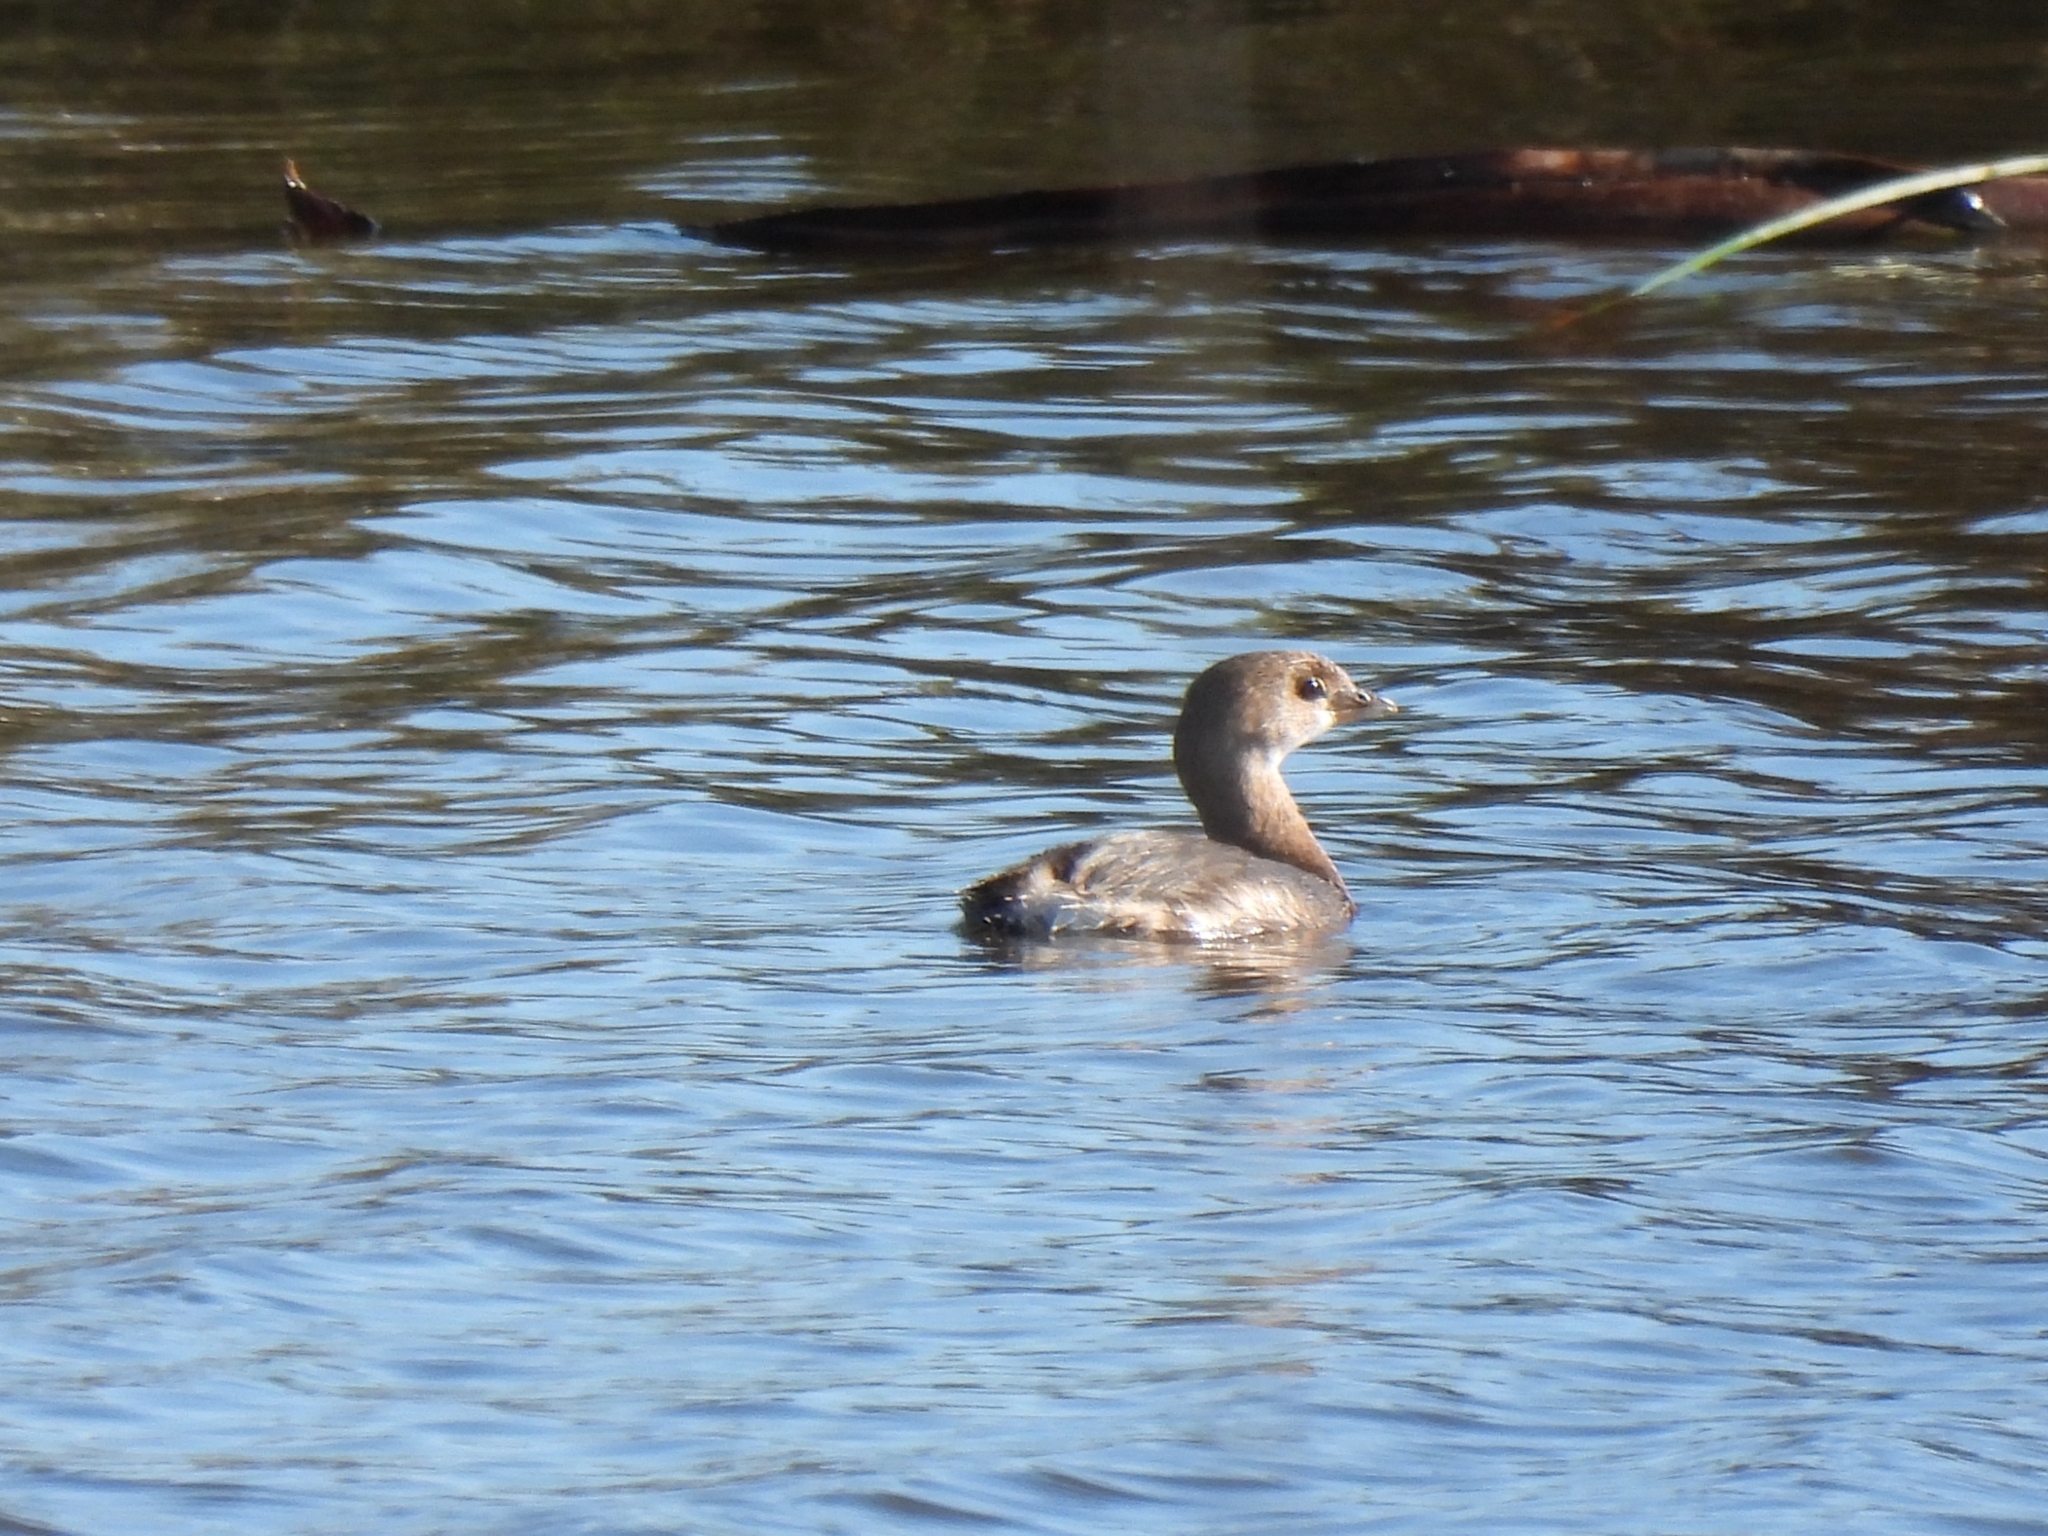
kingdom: Animalia
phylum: Chordata
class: Aves
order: Podicipediformes
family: Podicipedidae
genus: Podilymbus
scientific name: Podilymbus podiceps
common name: Pied-billed grebe
